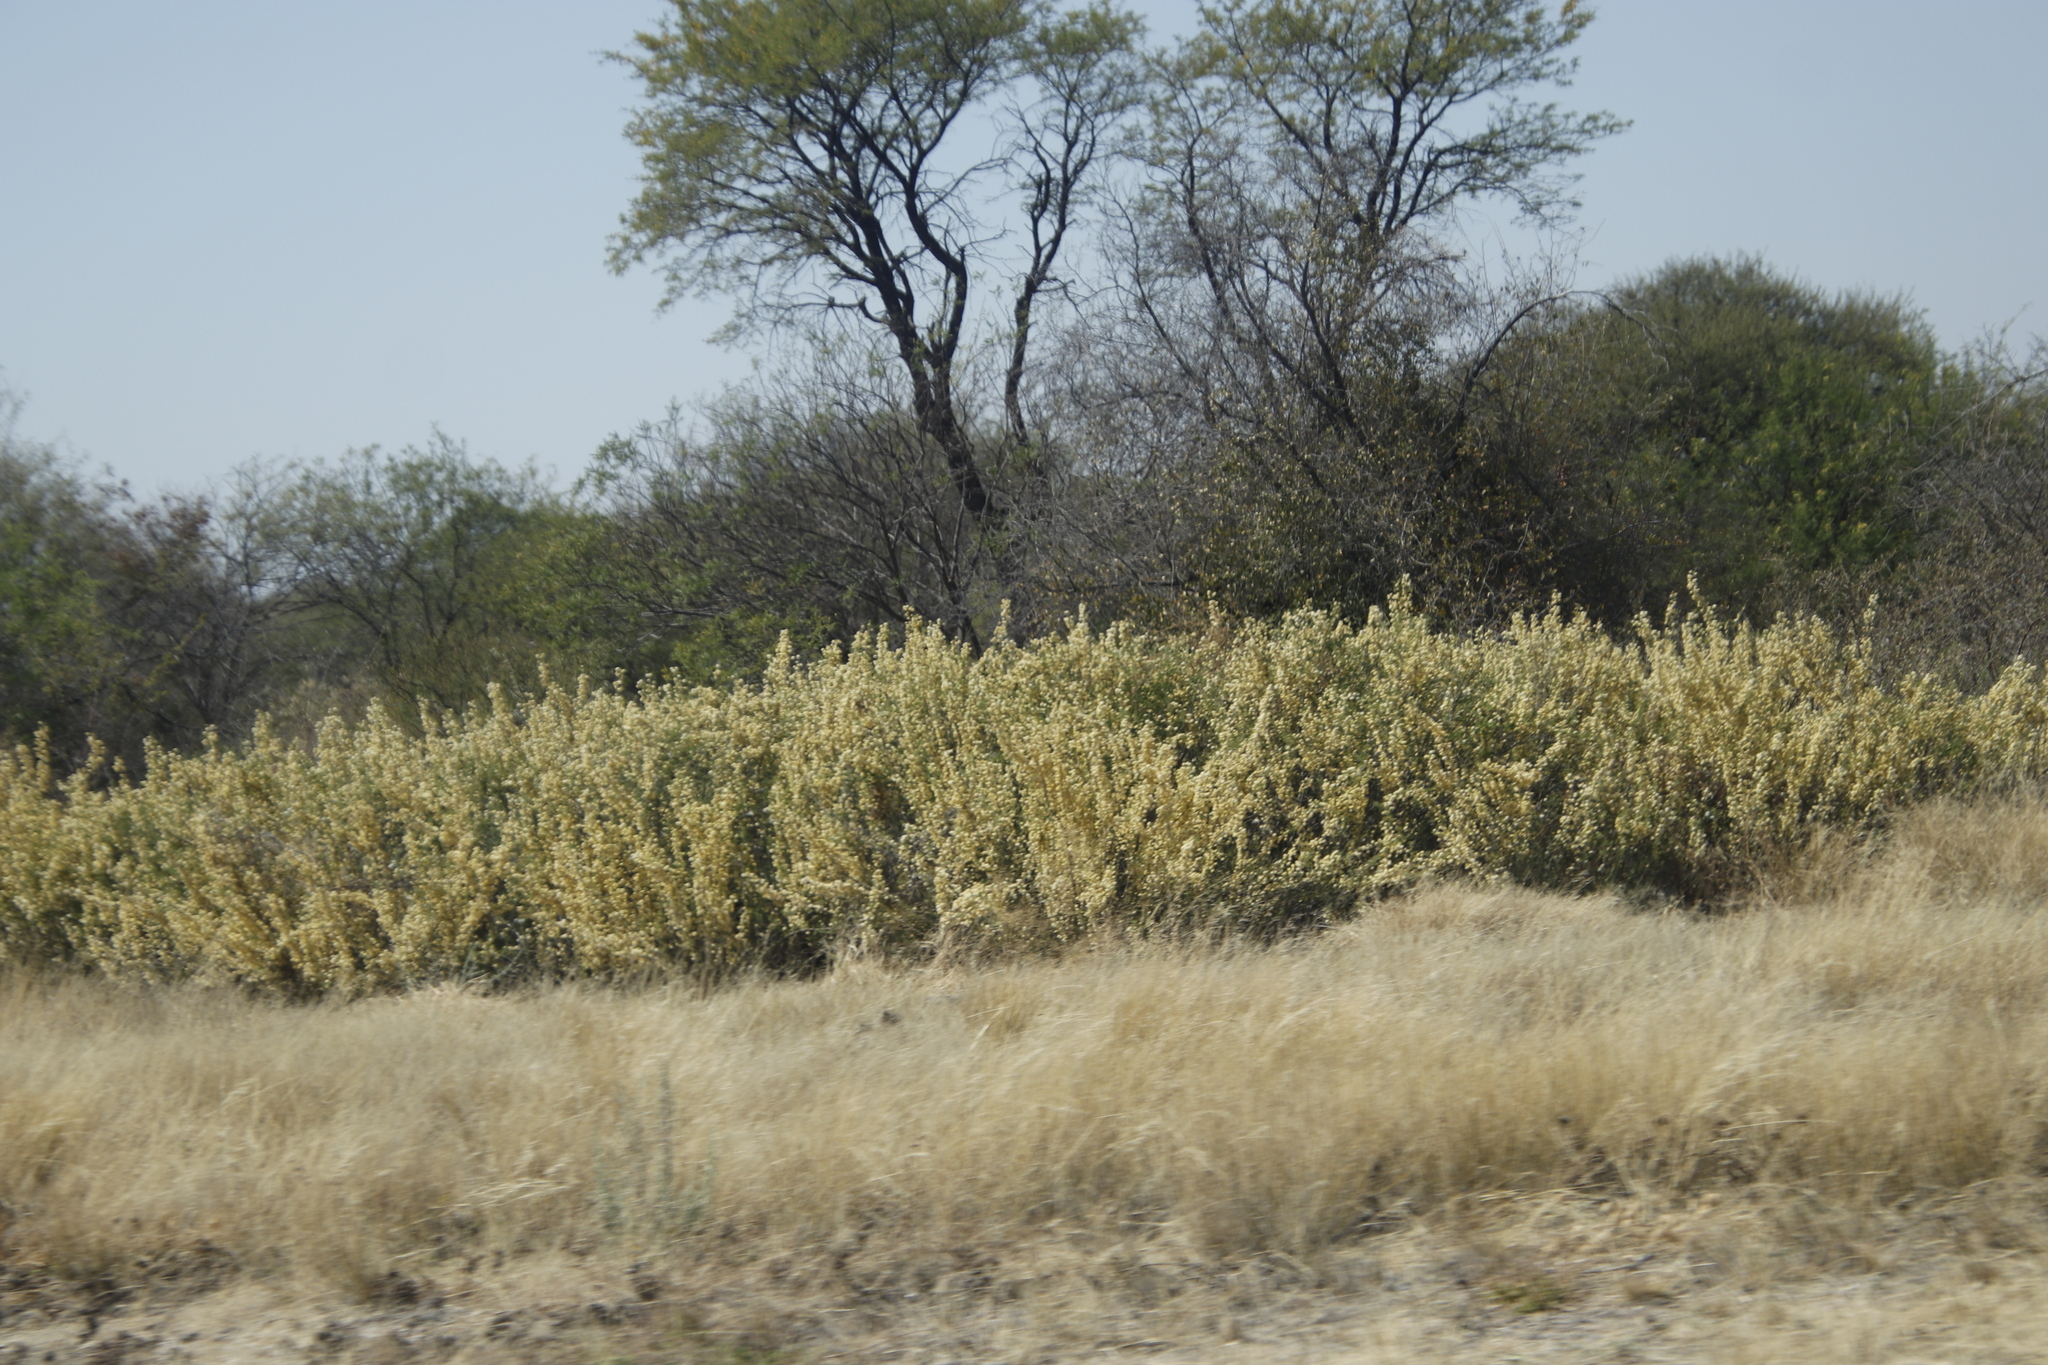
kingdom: Plantae
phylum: Tracheophyta
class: Magnoliopsida
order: Fabales
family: Fabaceae
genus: Vachellia
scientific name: Vachellia hebeclada
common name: Candle thorn
